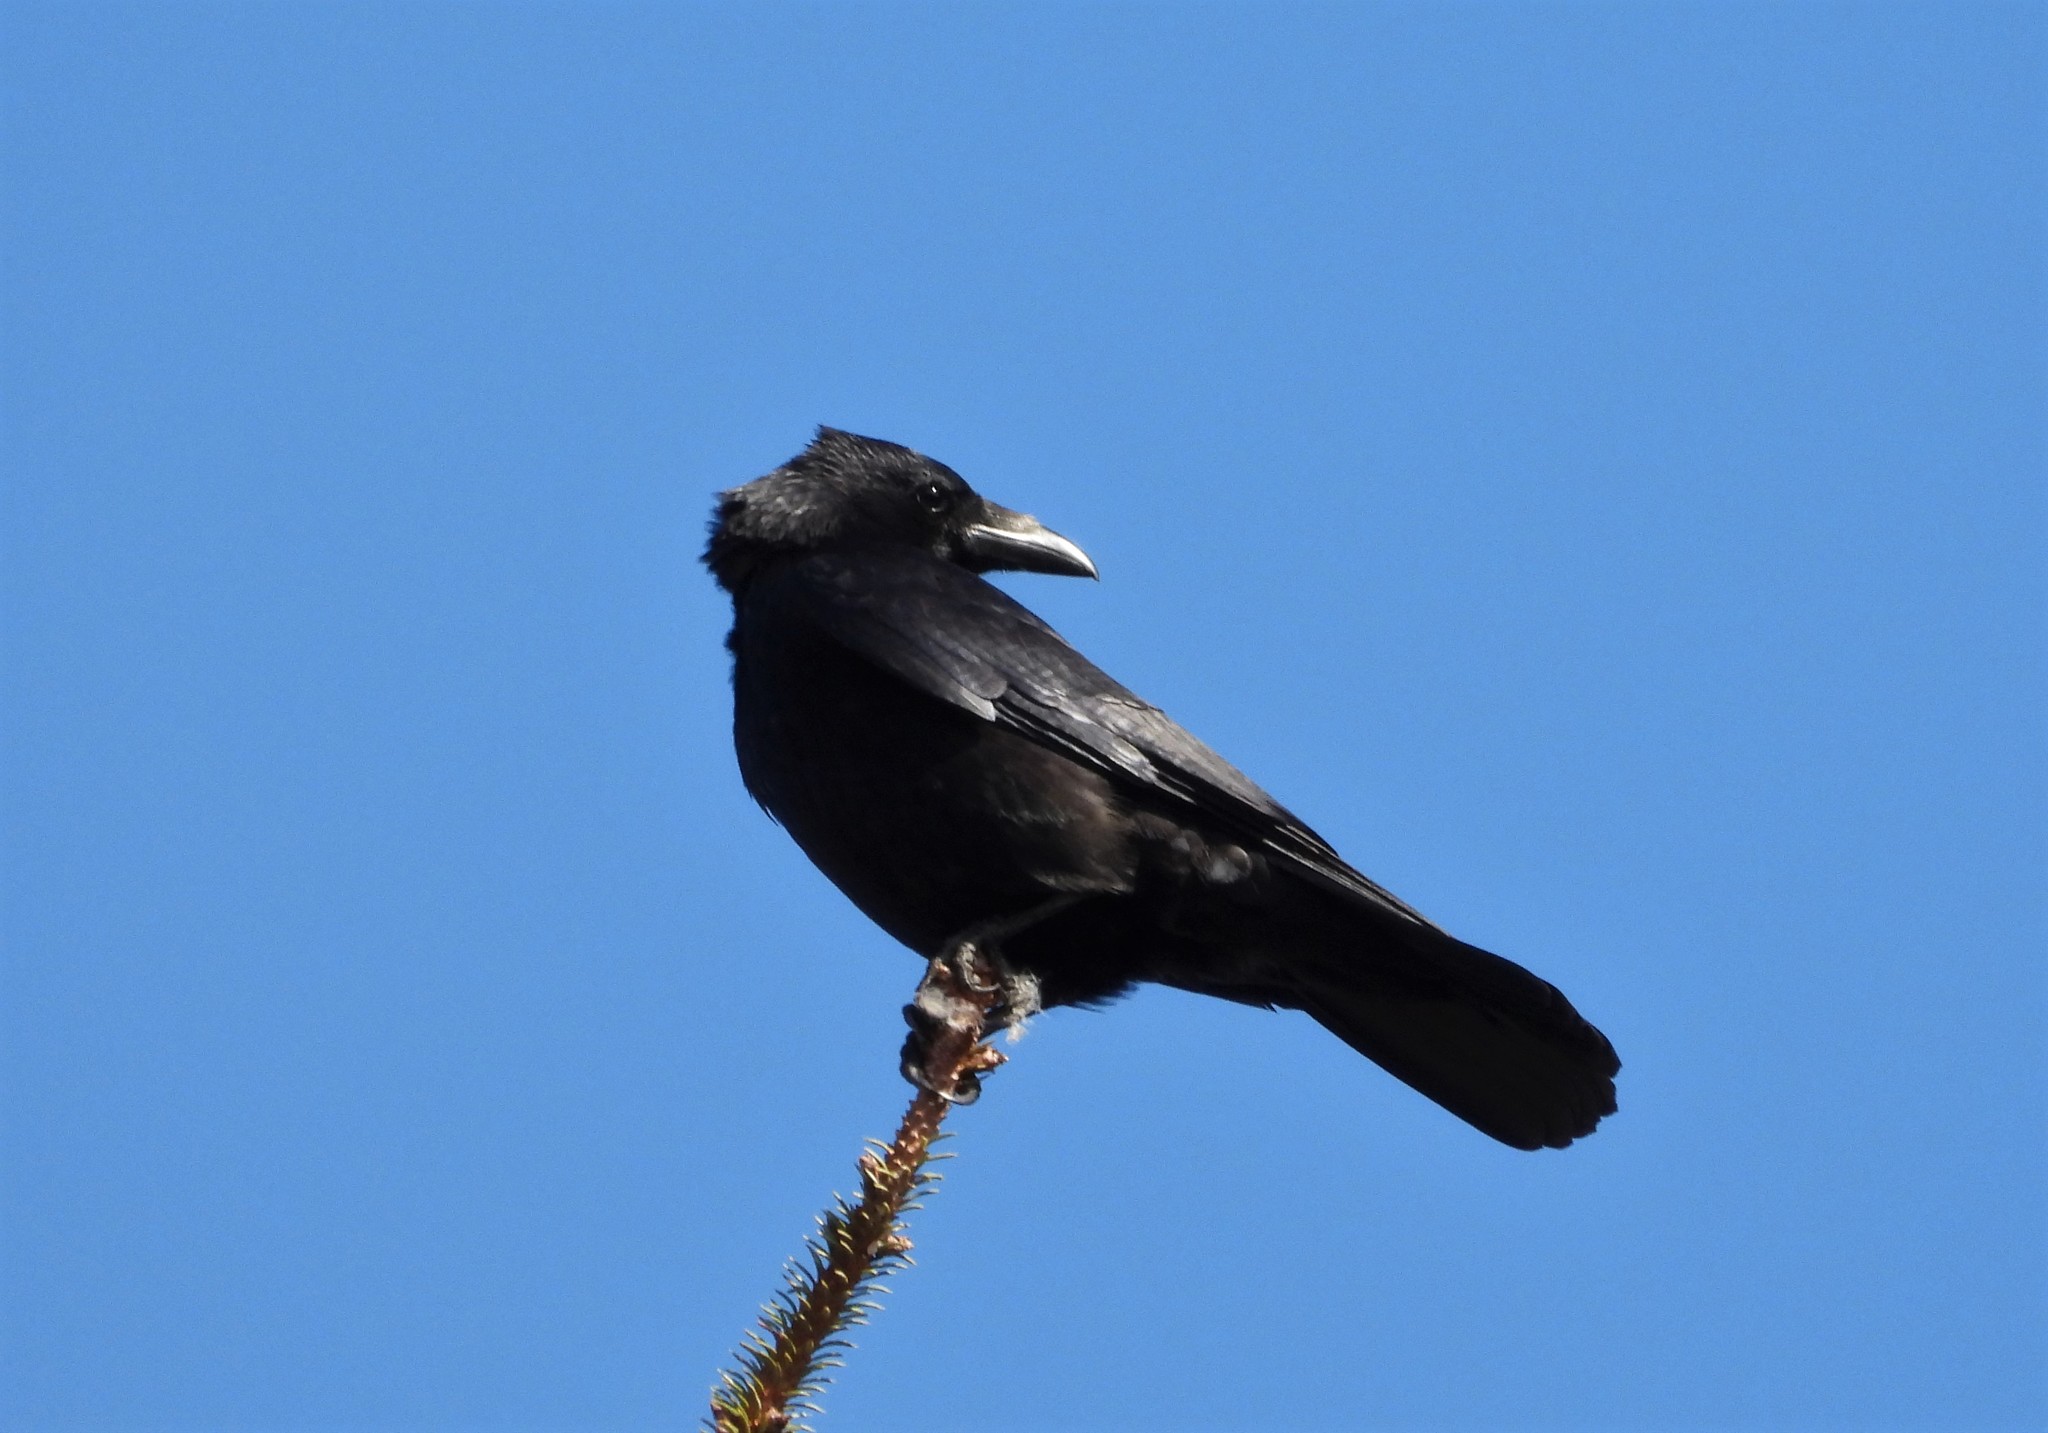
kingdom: Animalia
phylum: Chordata
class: Aves
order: Passeriformes
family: Corvidae
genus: Corvus
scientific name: Corvus corone
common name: Carrion crow
